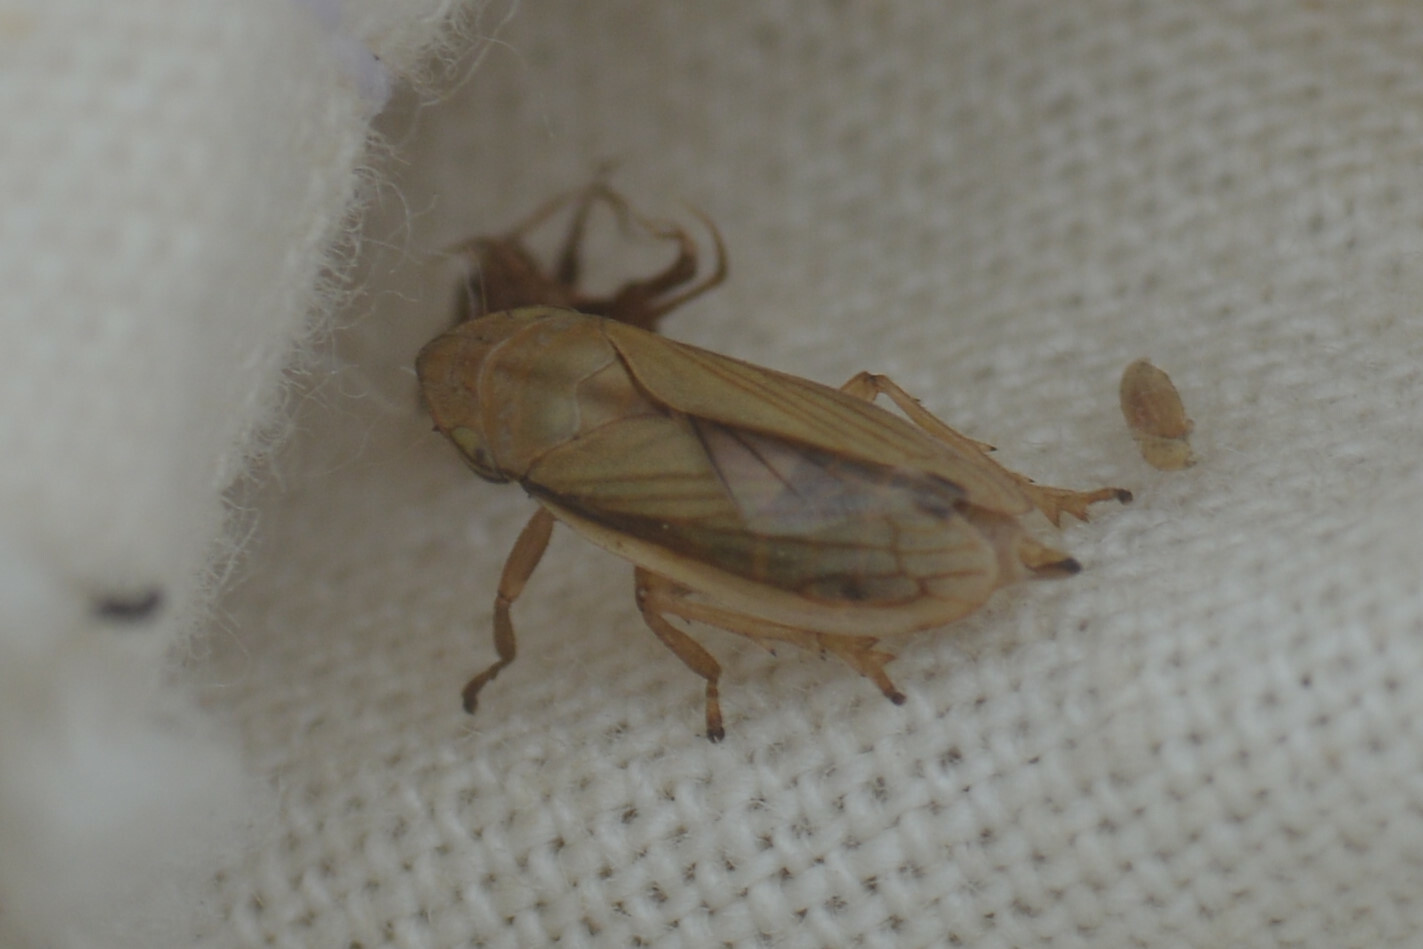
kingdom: Animalia
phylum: Arthropoda
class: Insecta
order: Hemiptera
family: Aphrophoridae
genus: Neophilaenus
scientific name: Neophilaenus lineatus
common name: Spittlebug
